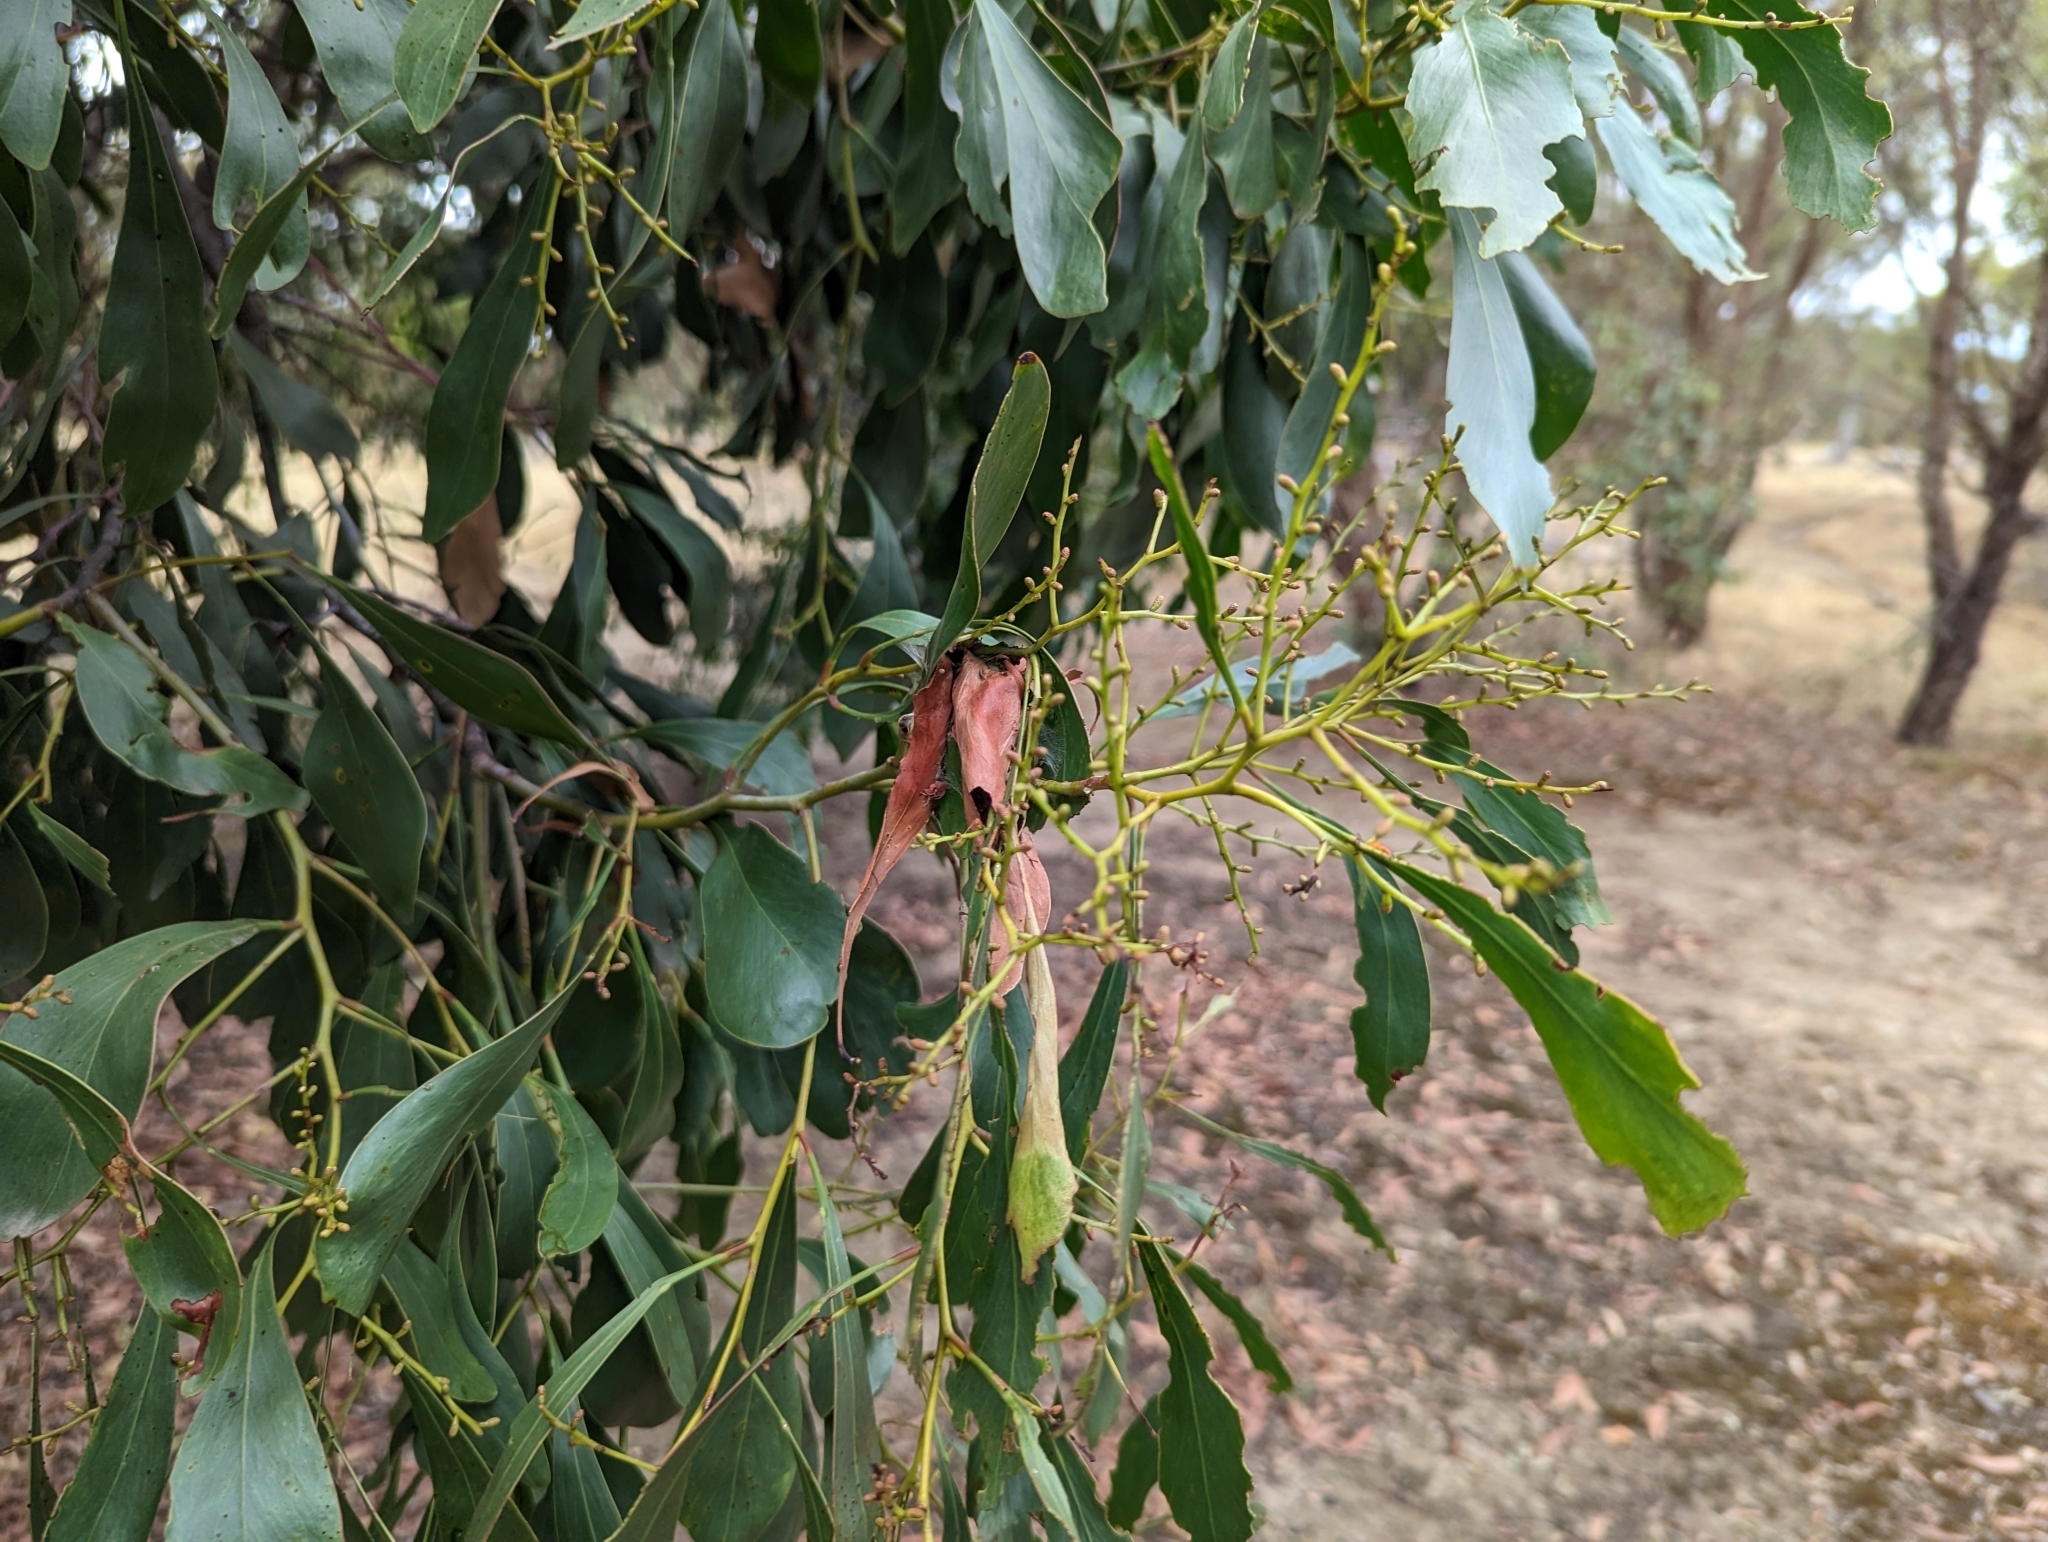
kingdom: Plantae
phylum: Tracheophyta
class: Magnoliopsida
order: Fabales
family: Fabaceae
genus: Acacia
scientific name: Acacia pycnantha
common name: Golden wattle
